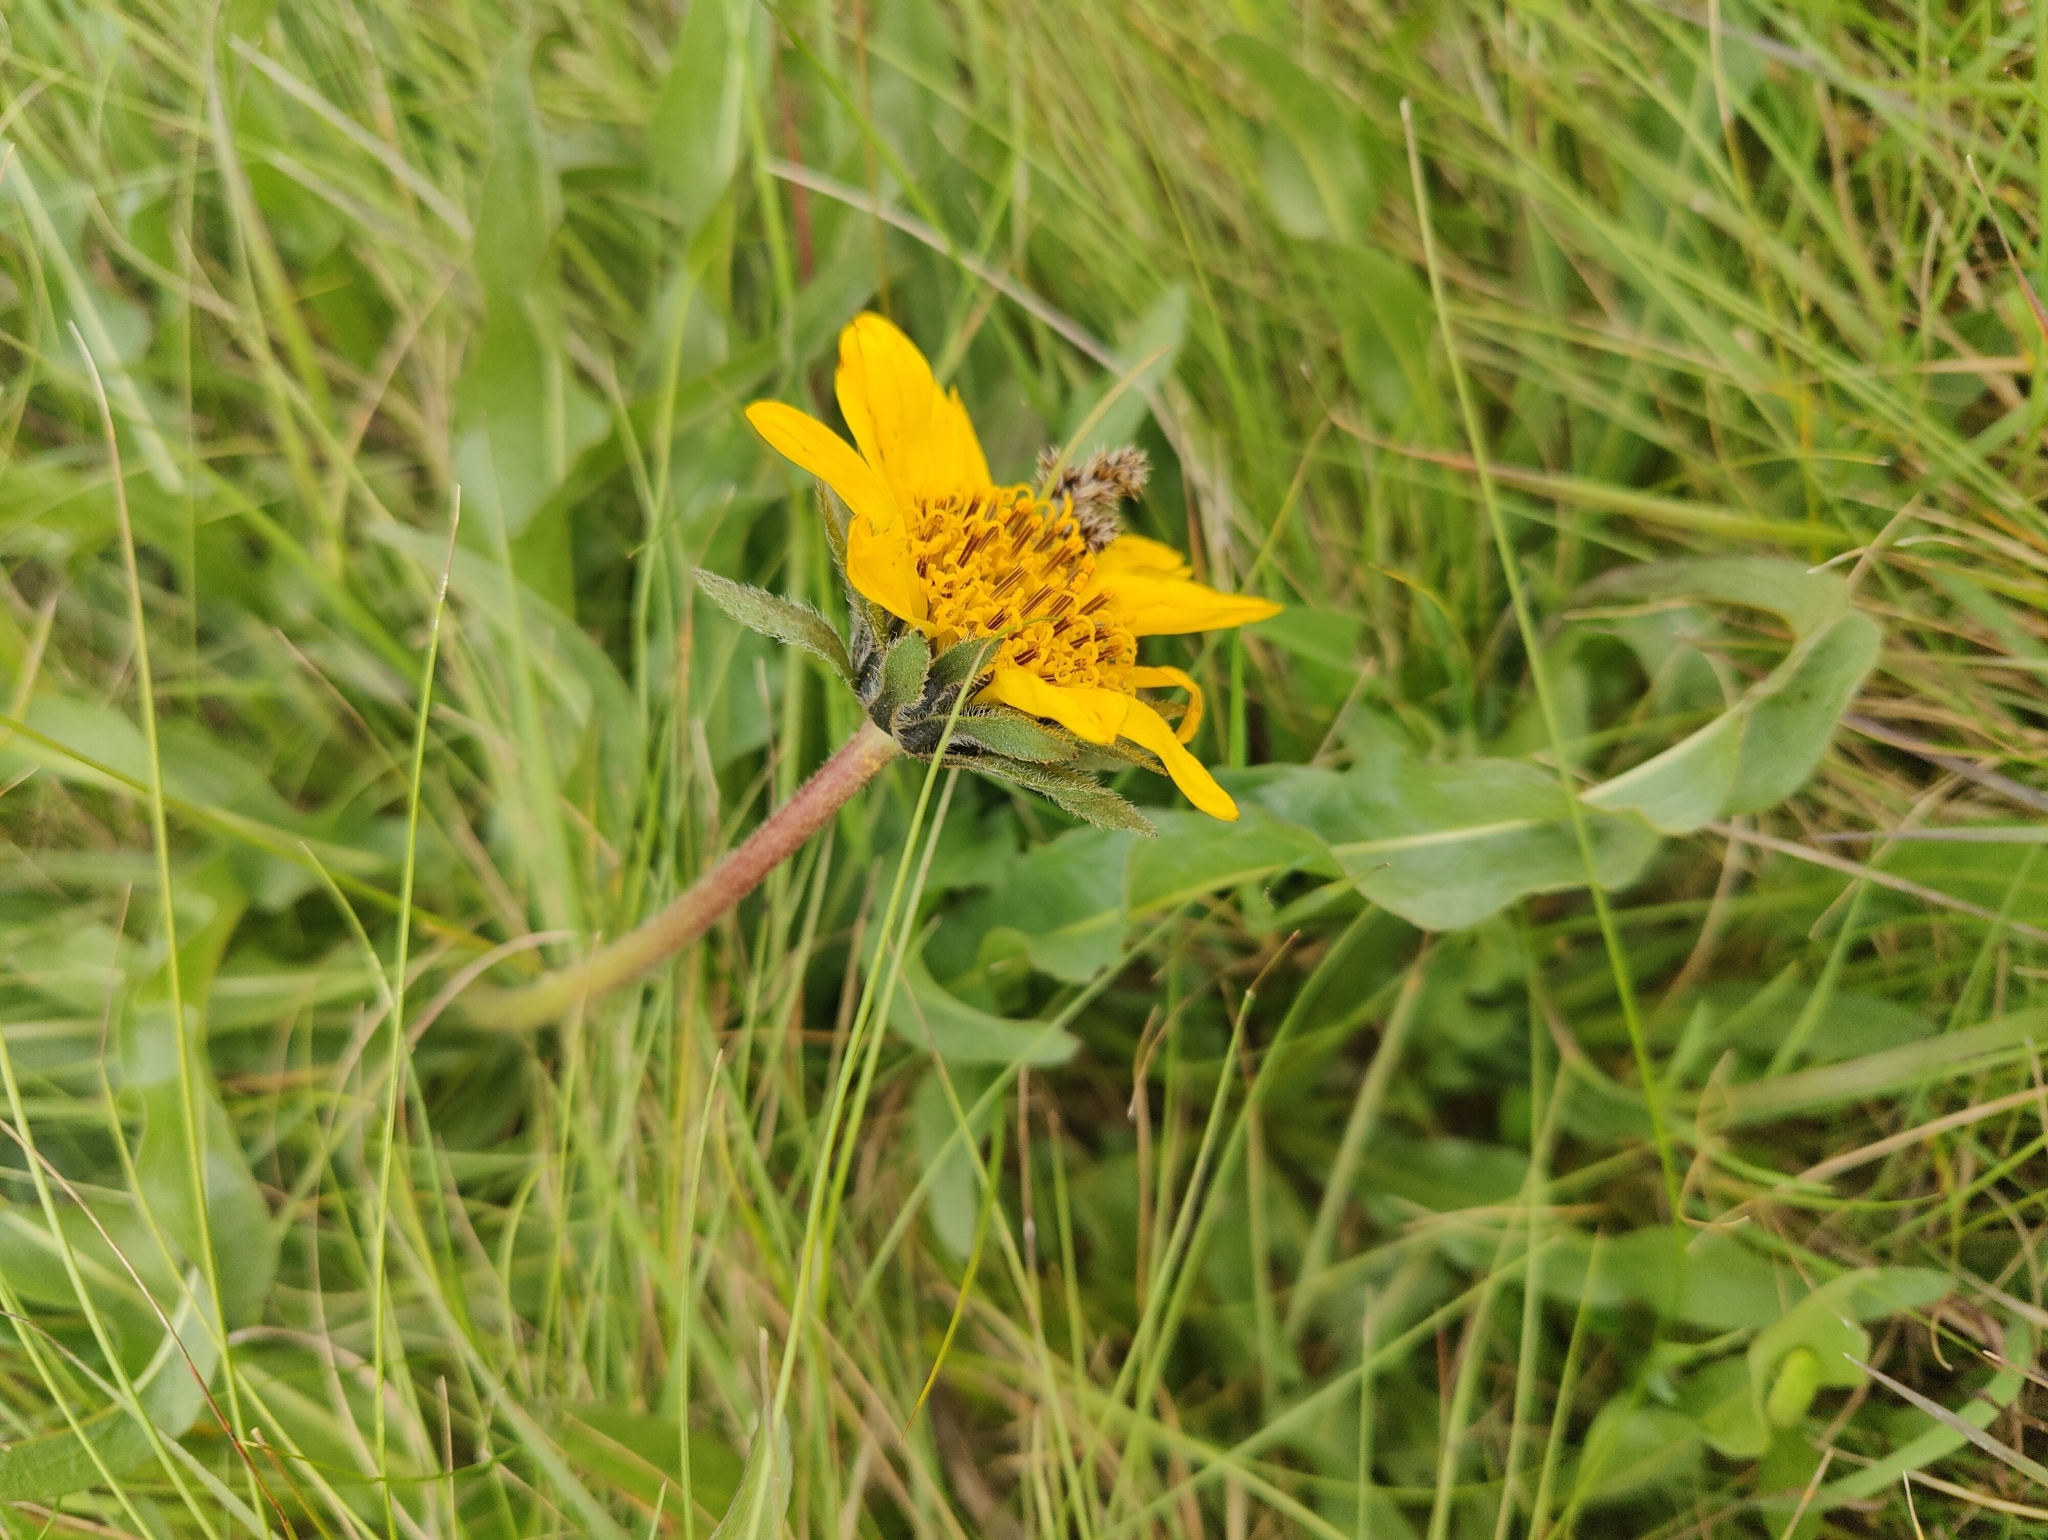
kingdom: Plantae
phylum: Tracheophyta
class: Magnoliopsida
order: Asterales
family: Asteraceae
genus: Wyethia
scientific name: Wyethia angustifolia
